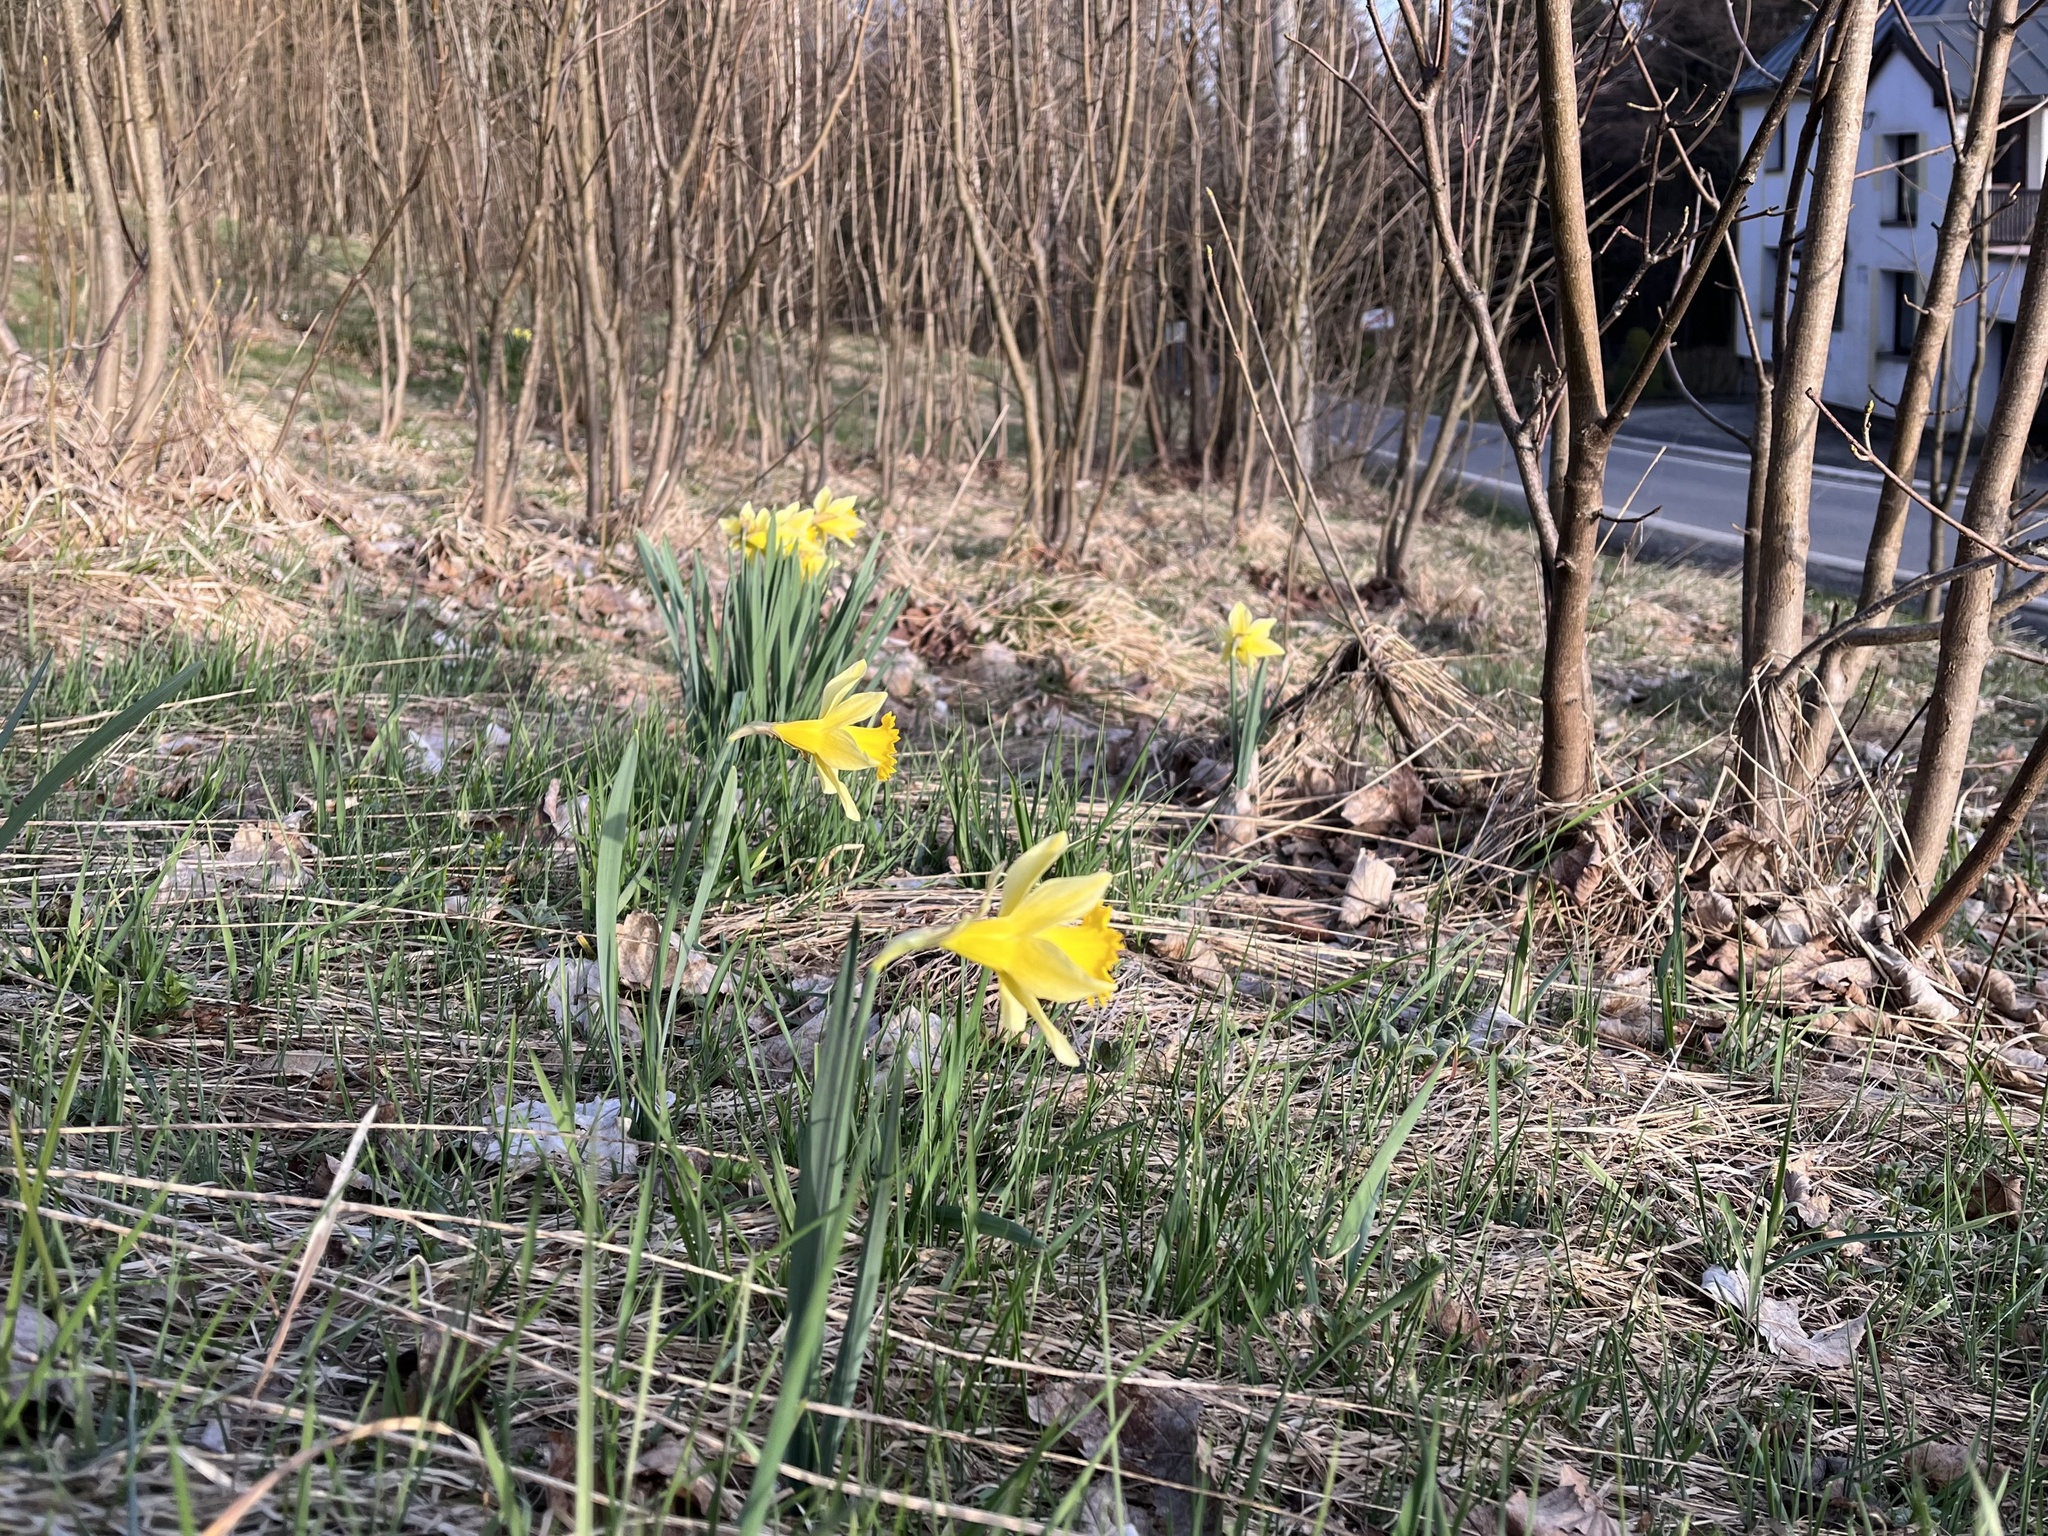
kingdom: Plantae
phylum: Tracheophyta
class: Liliopsida
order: Asparagales
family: Amaryllidaceae
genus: Narcissus
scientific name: Narcissus pseudonarcissus
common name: Daffodil
